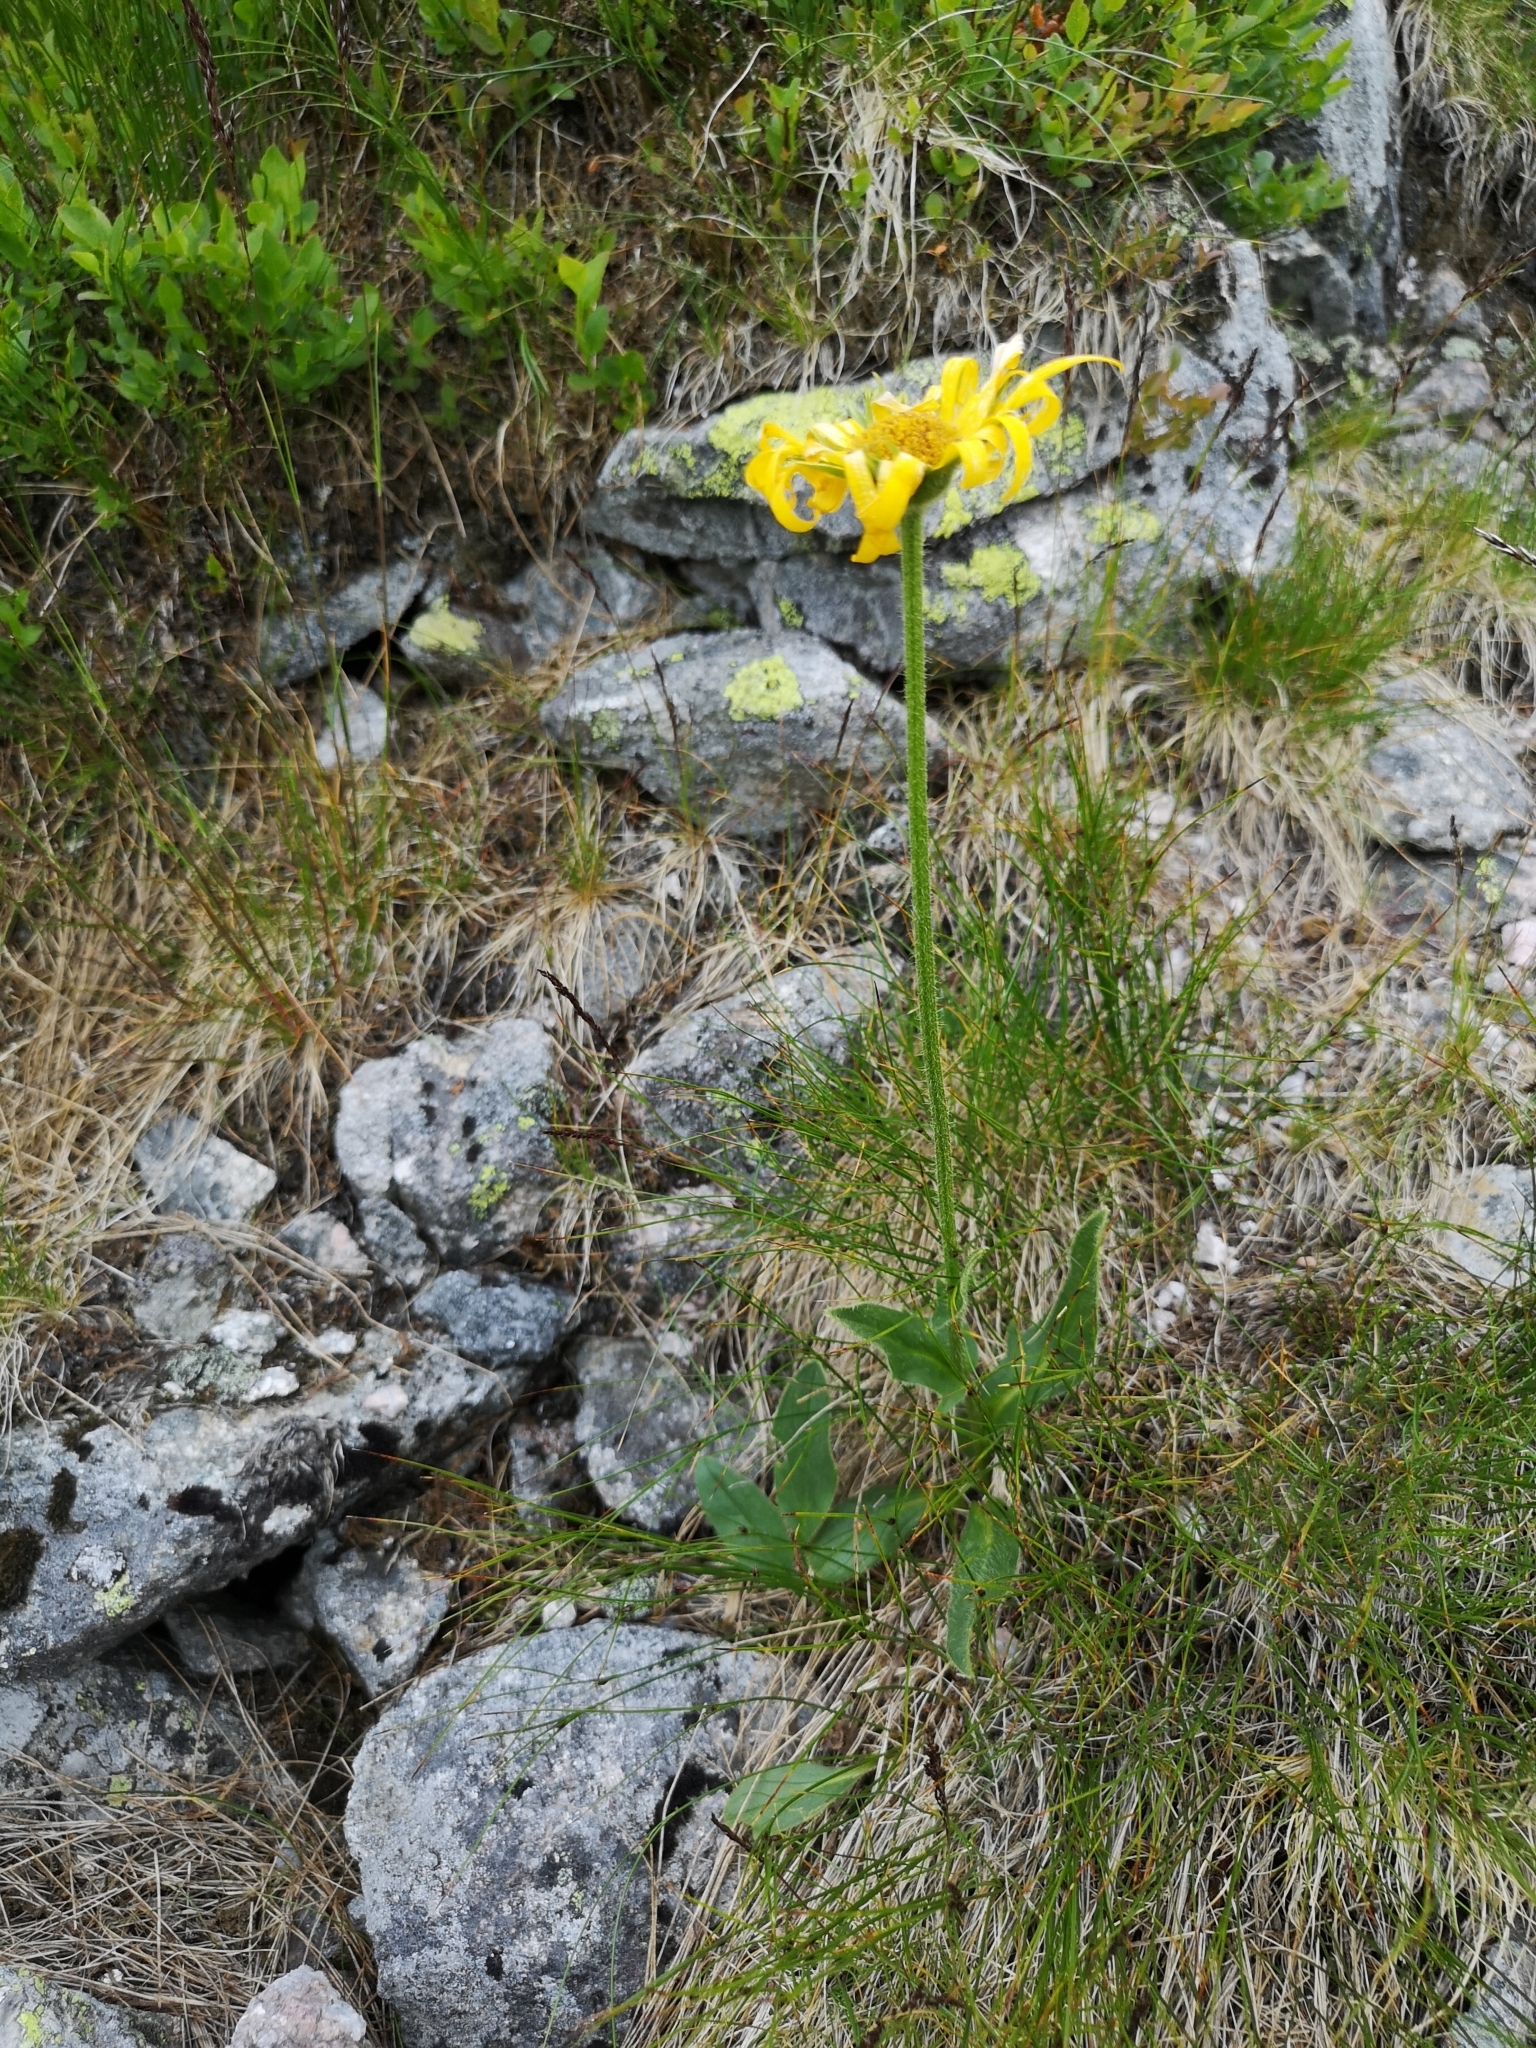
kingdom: Plantae
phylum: Tracheophyta
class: Magnoliopsida
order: Asterales
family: Asteraceae
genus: Doronicum
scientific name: Doronicum clusii
